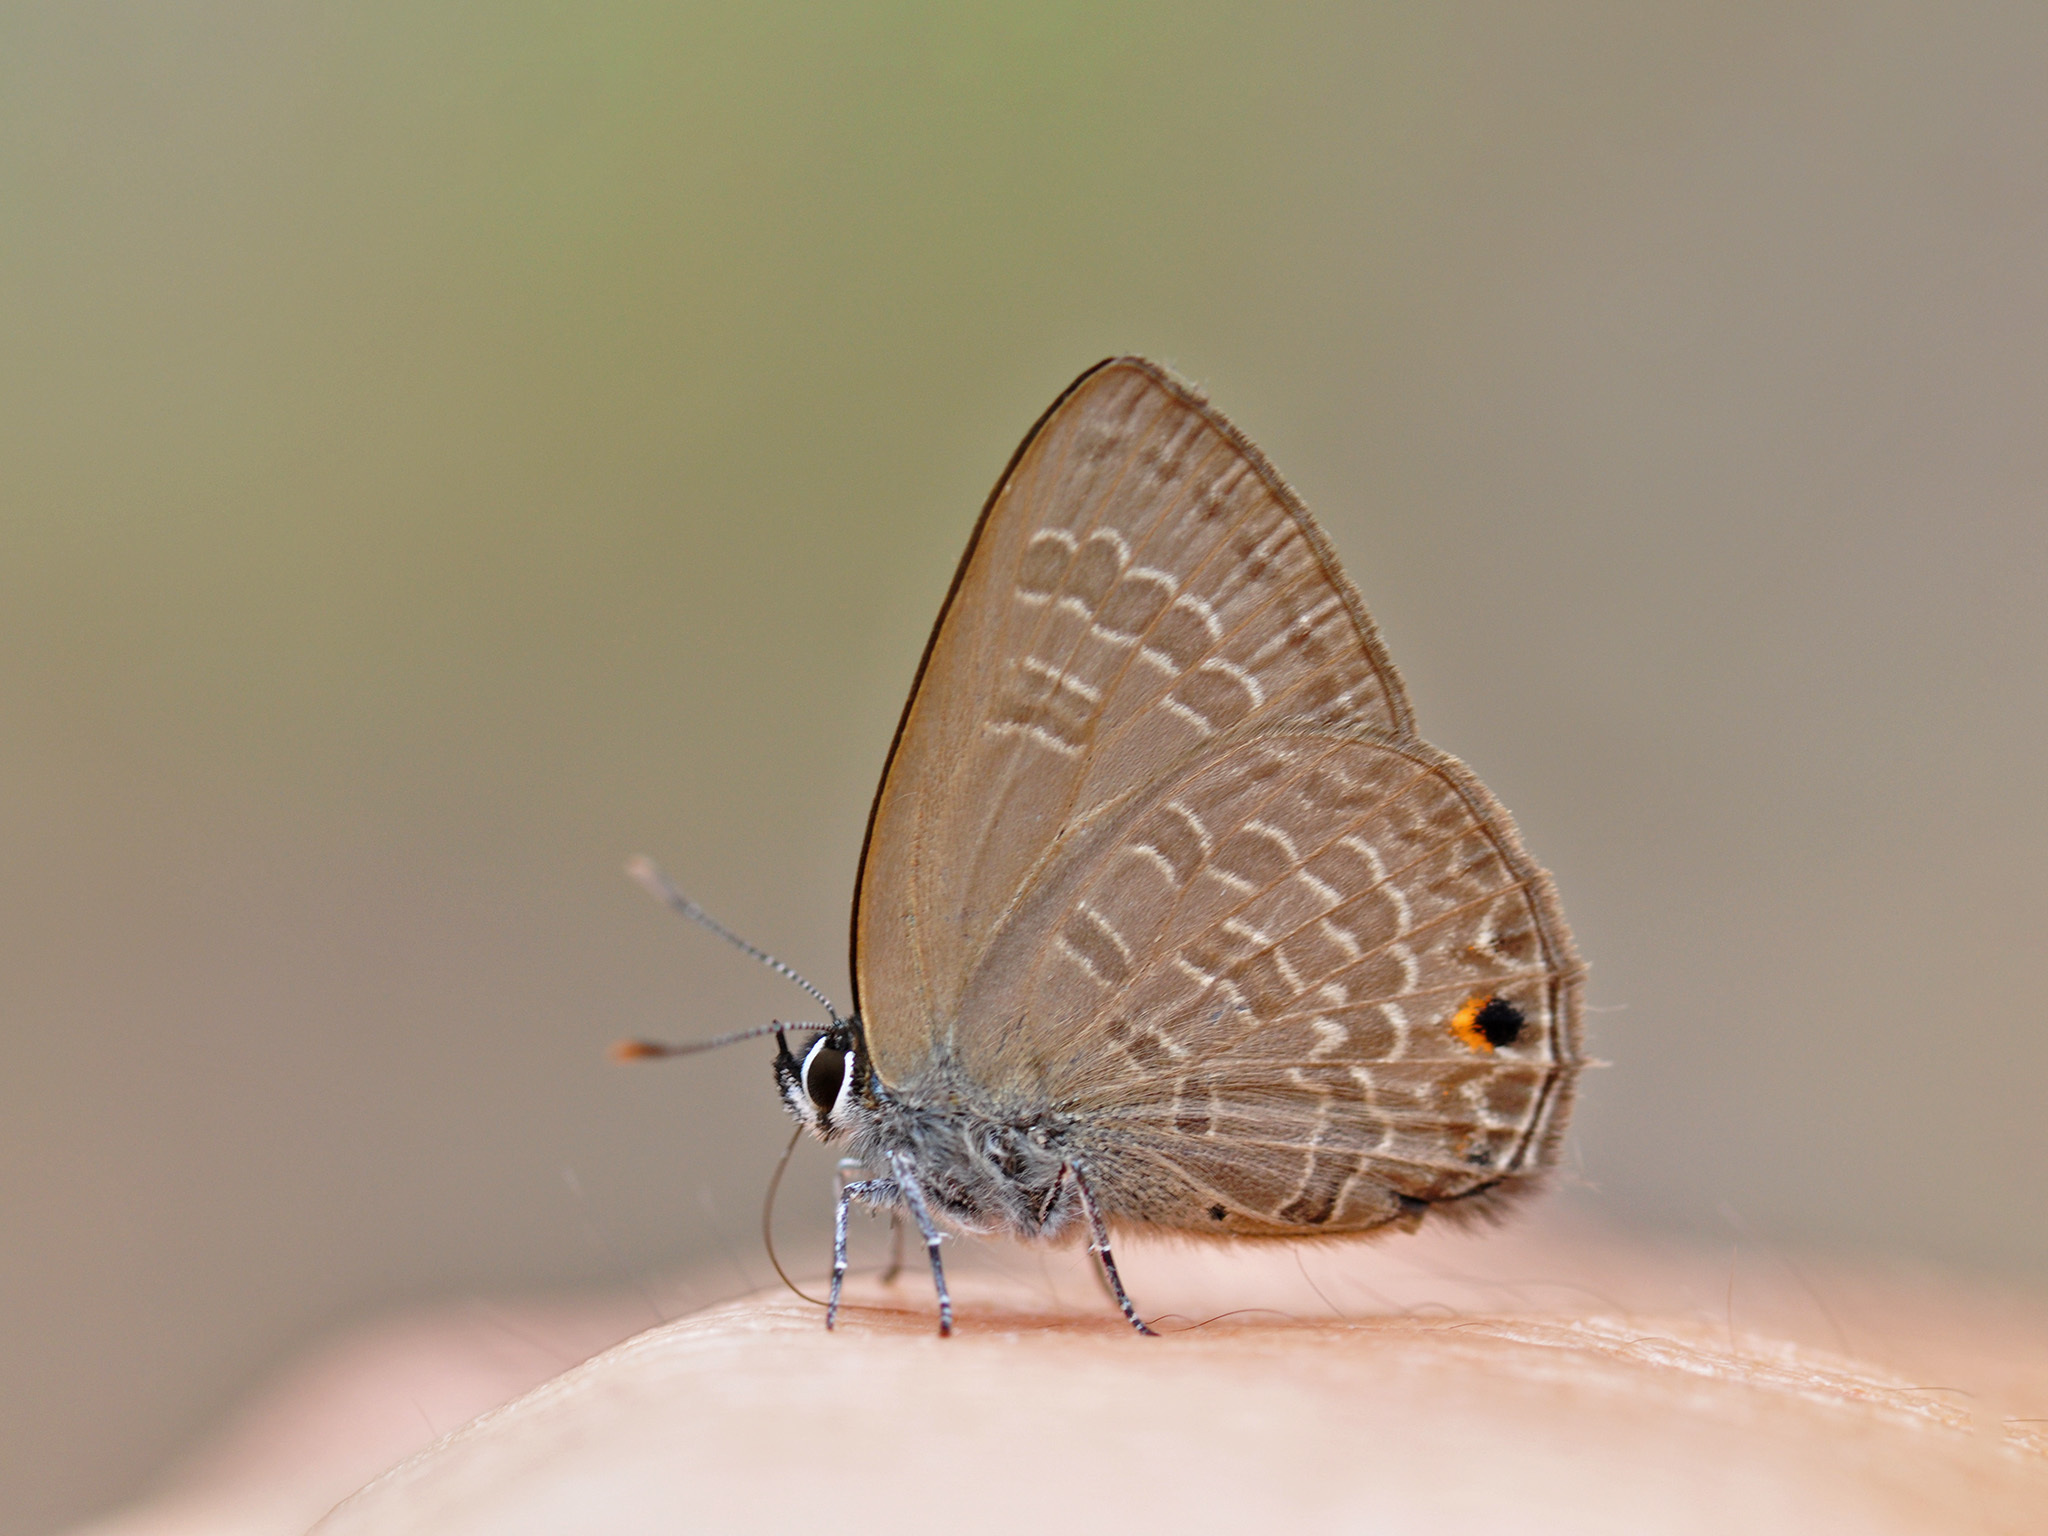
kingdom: Animalia
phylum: Arthropoda
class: Insecta
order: Lepidoptera
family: Lycaenidae
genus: Anthene
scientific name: Anthene emolus
